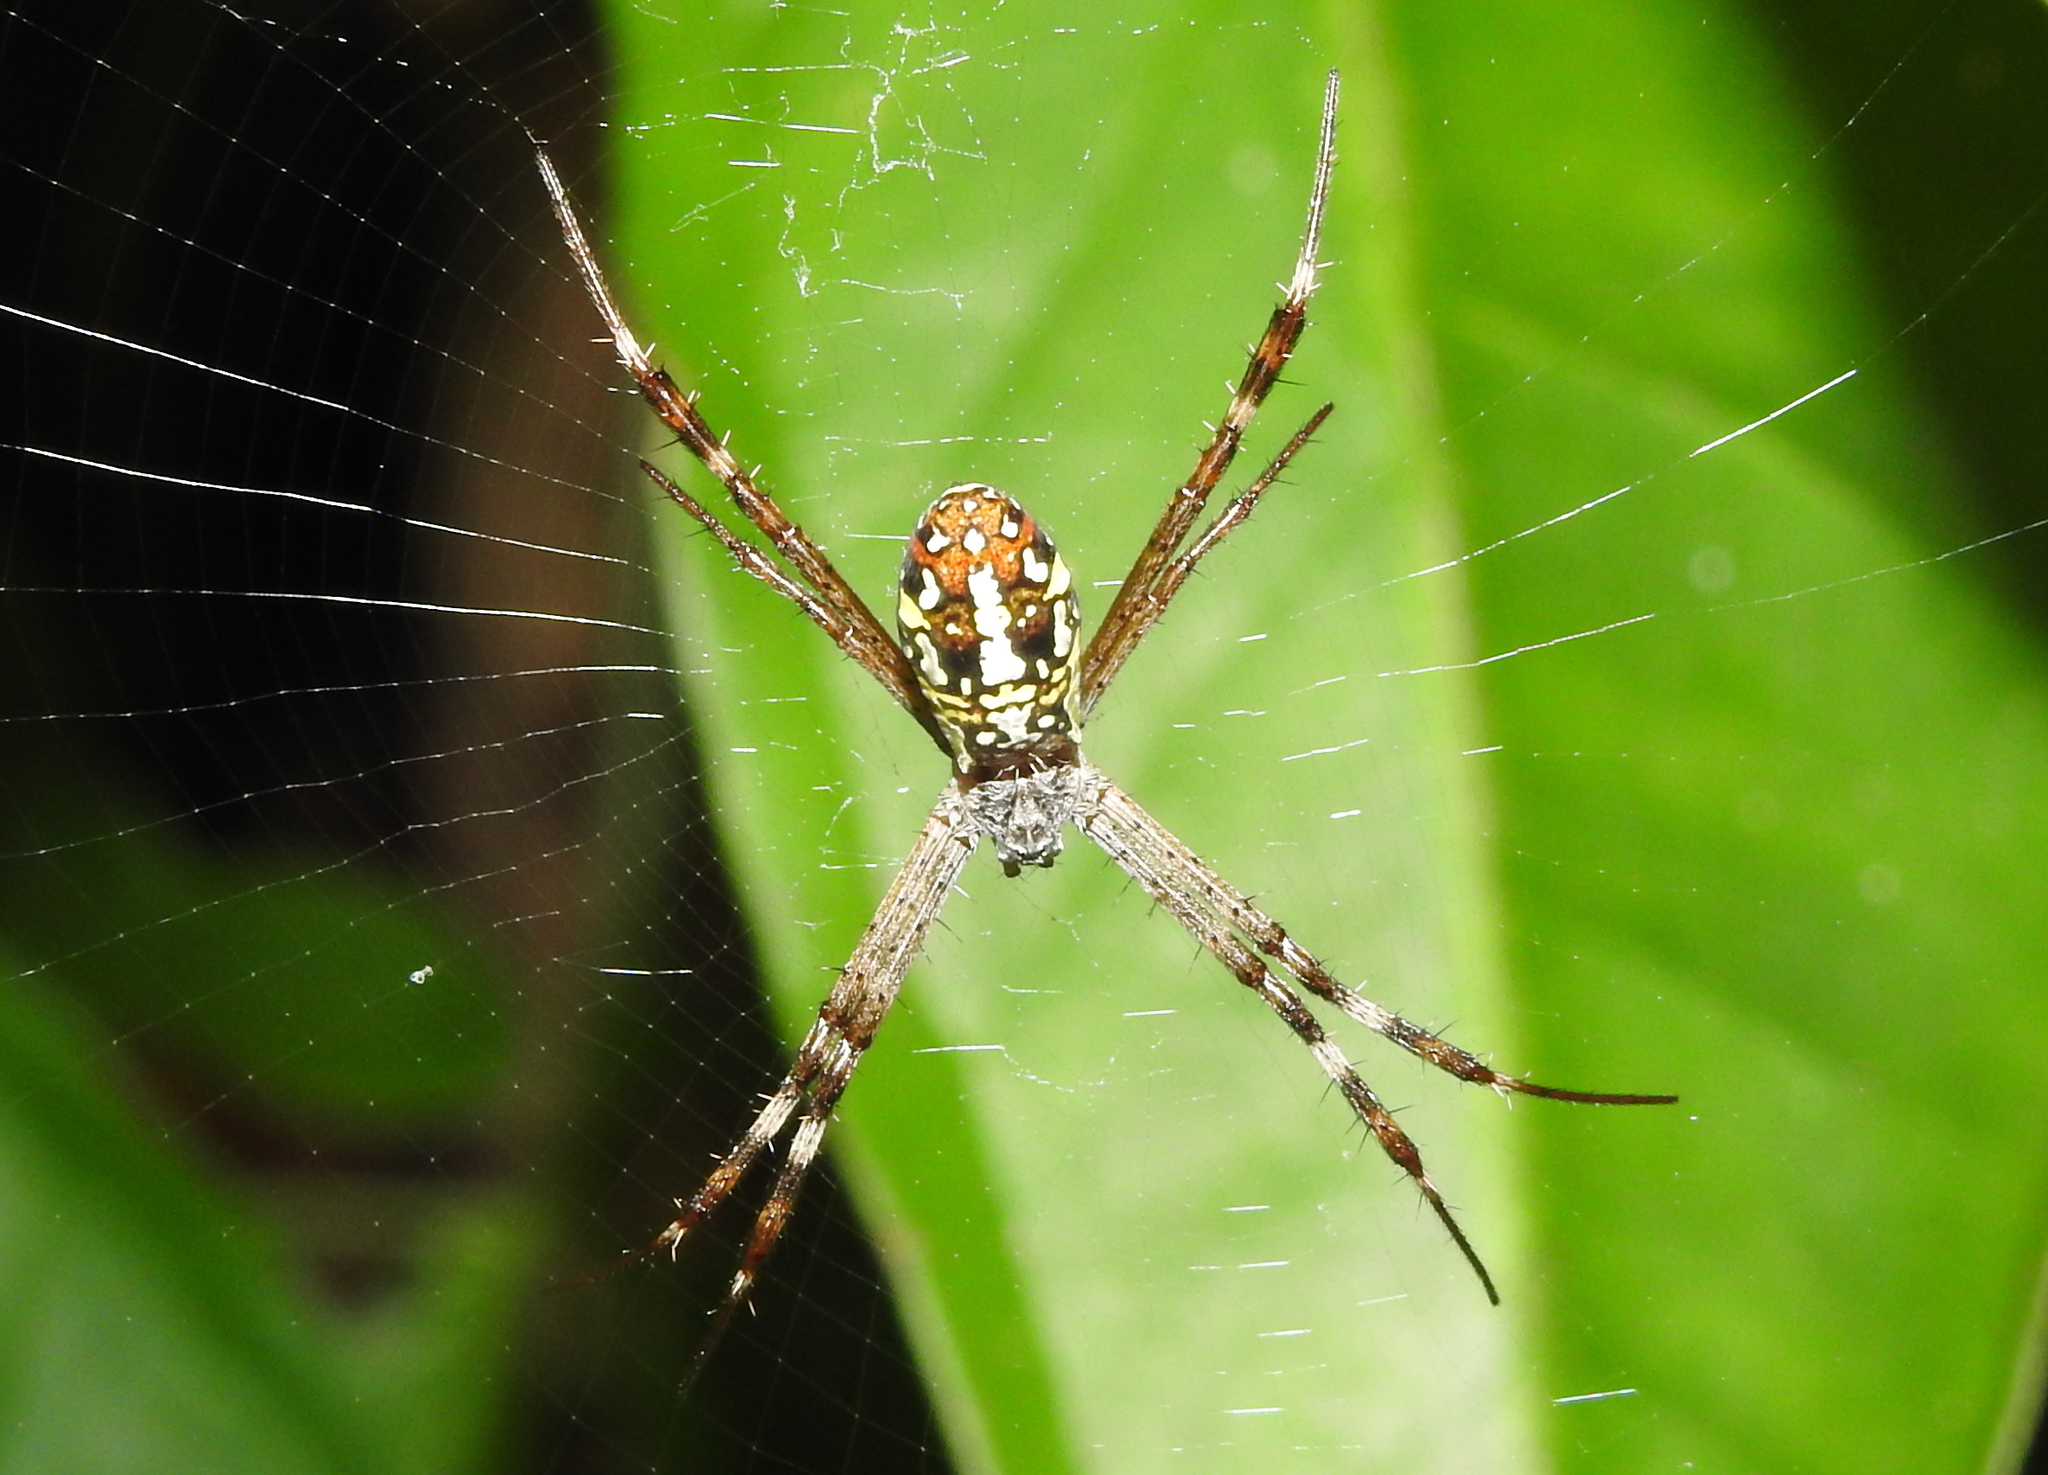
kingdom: Animalia
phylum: Arthropoda
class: Arachnida
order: Araneae
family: Araneidae
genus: Argiope
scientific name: Argiope dang
